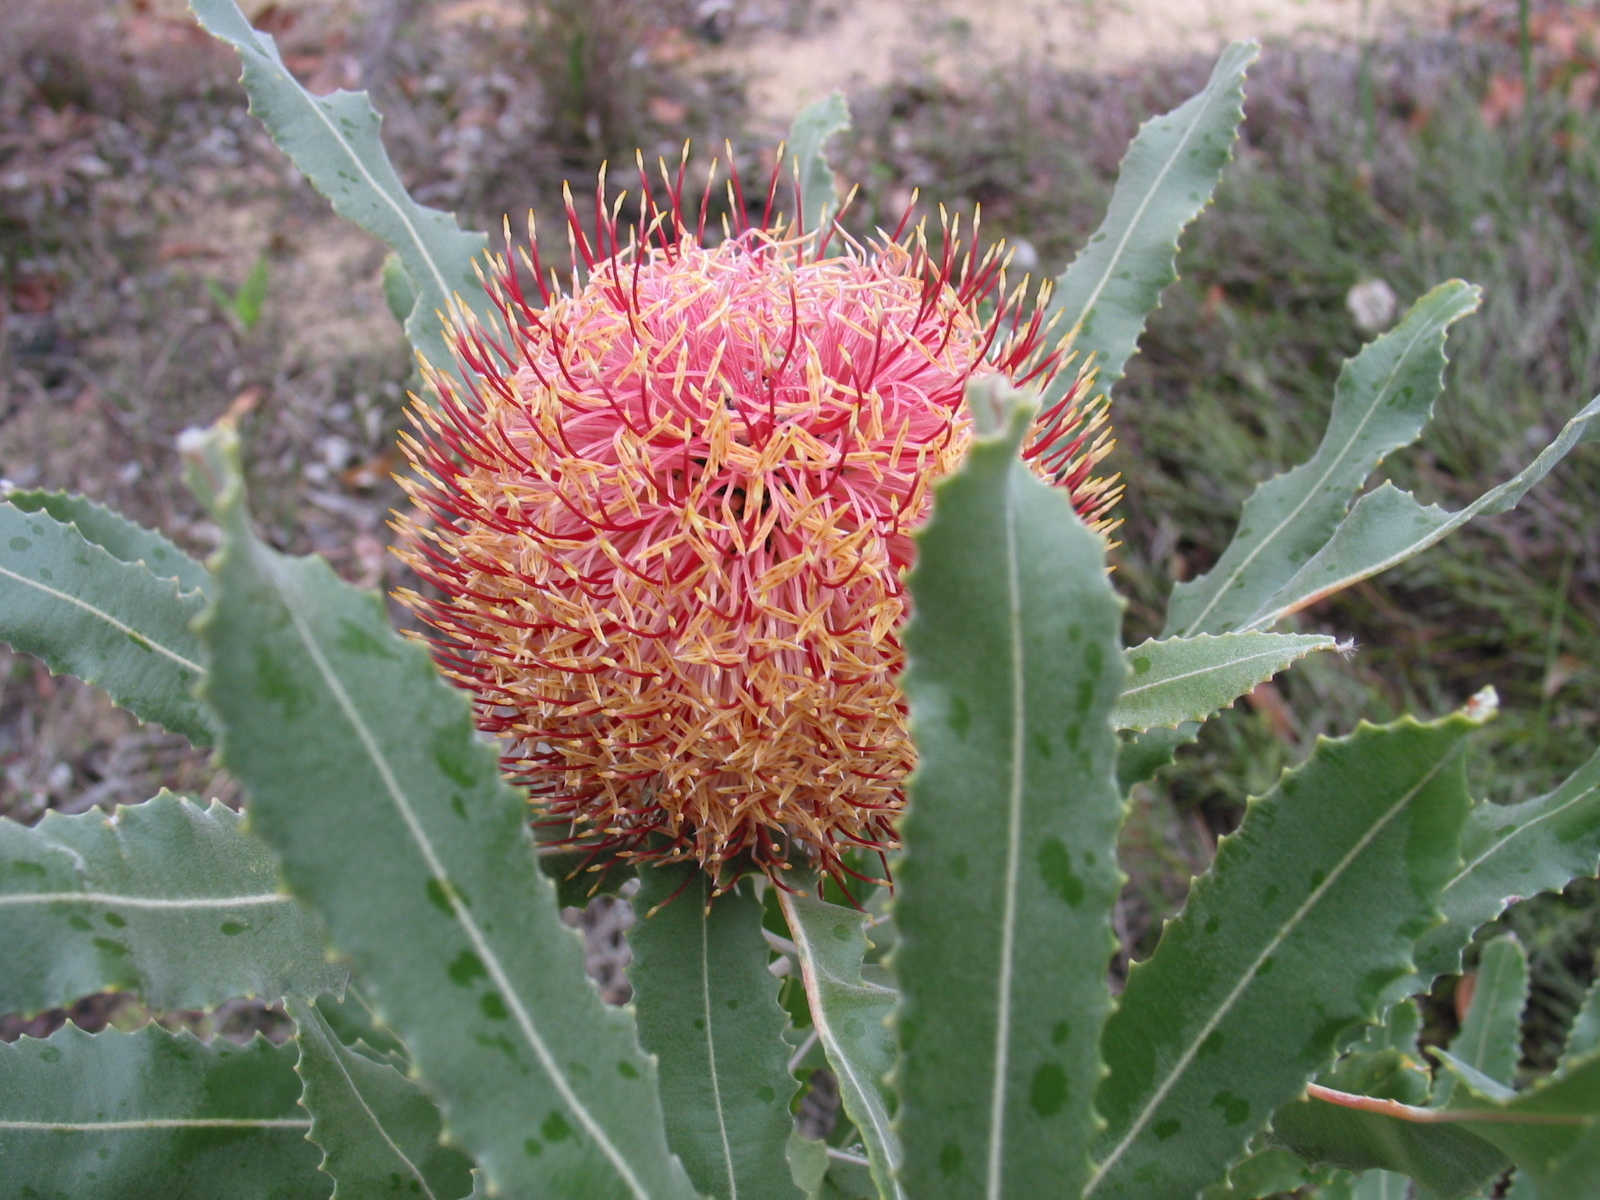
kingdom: Plantae
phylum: Tracheophyta
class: Magnoliopsida
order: Proteales
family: Proteaceae
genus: Banksia
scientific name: Banksia menziesii
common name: Menzie's banksia
